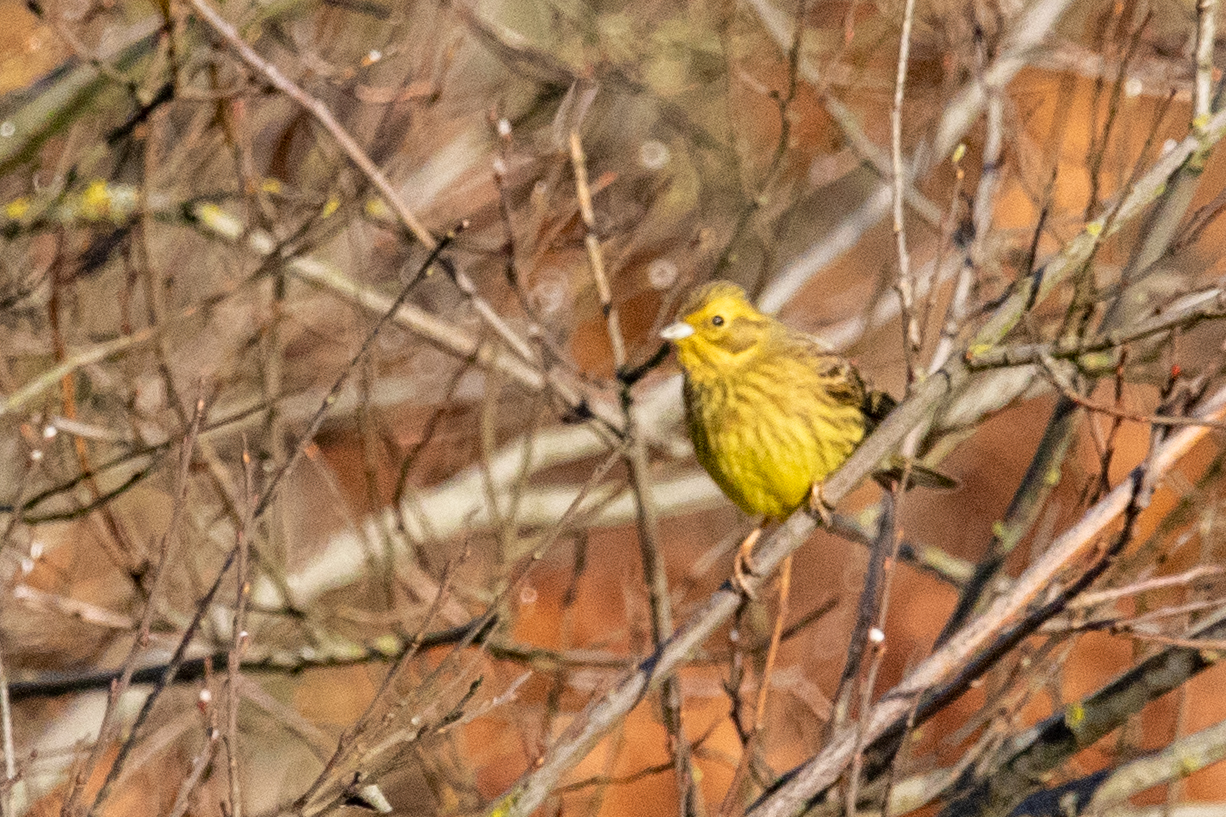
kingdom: Animalia
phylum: Chordata
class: Aves
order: Passeriformes
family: Emberizidae
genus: Emberiza
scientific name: Emberiza citrinella
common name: Yellowhammer
